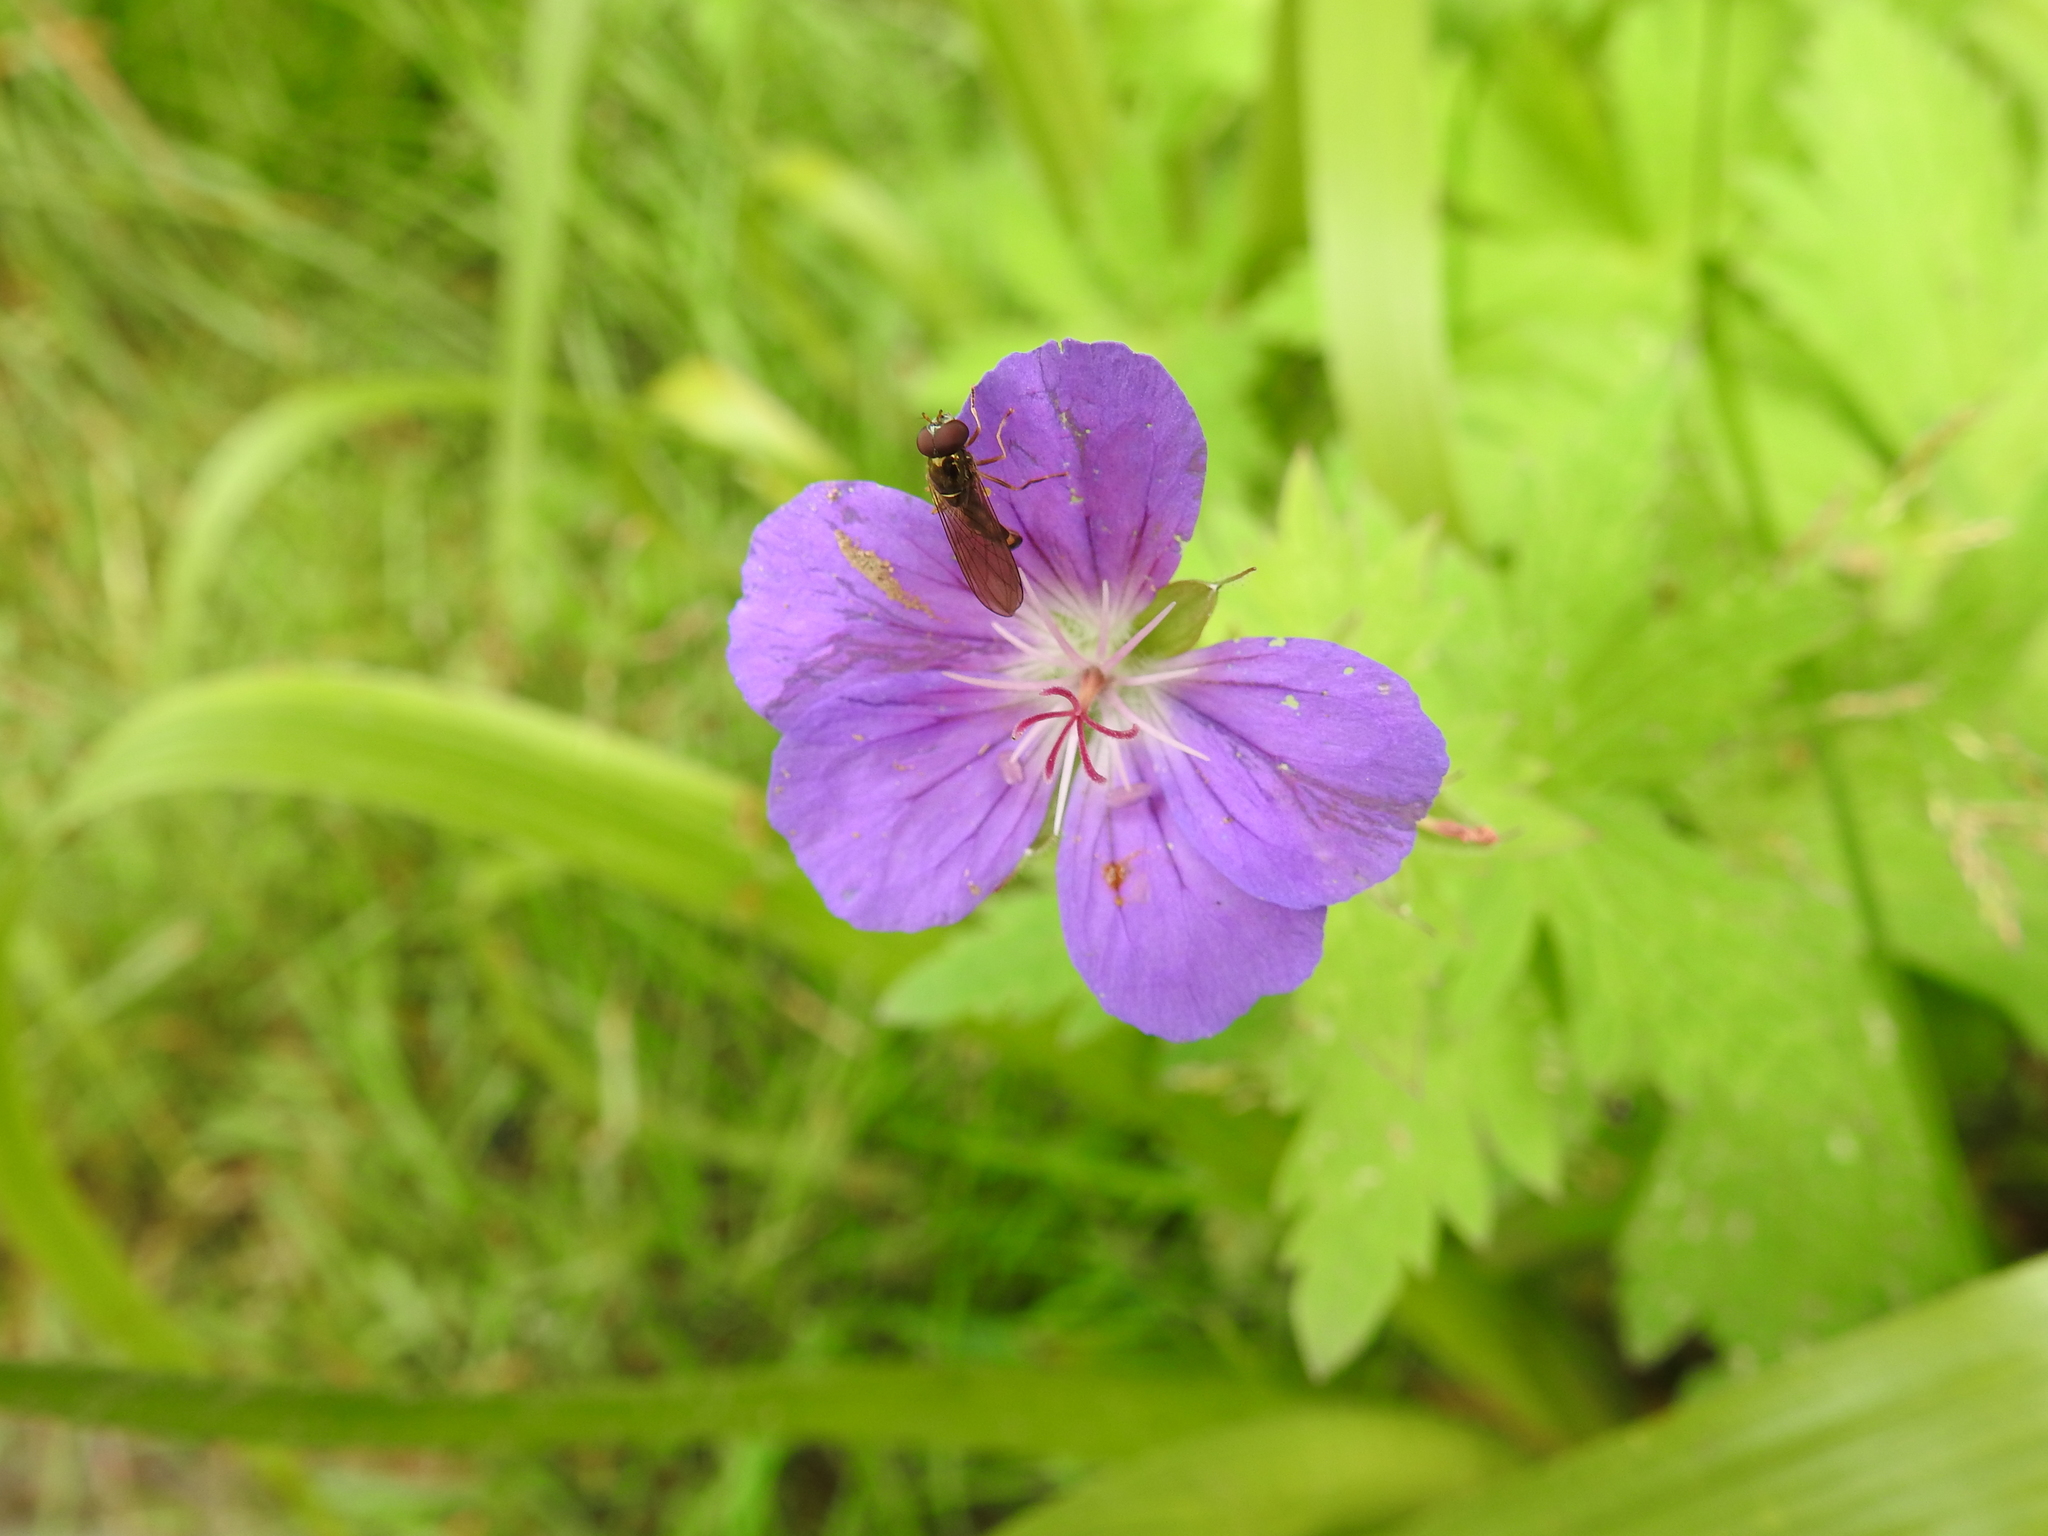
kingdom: Plantae
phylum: Tracheophyta
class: Magnoliopsida
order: Geraniales
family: Geraniaceae
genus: Geranium
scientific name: Geranium sylvaticum
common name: Wood crane's-bill
